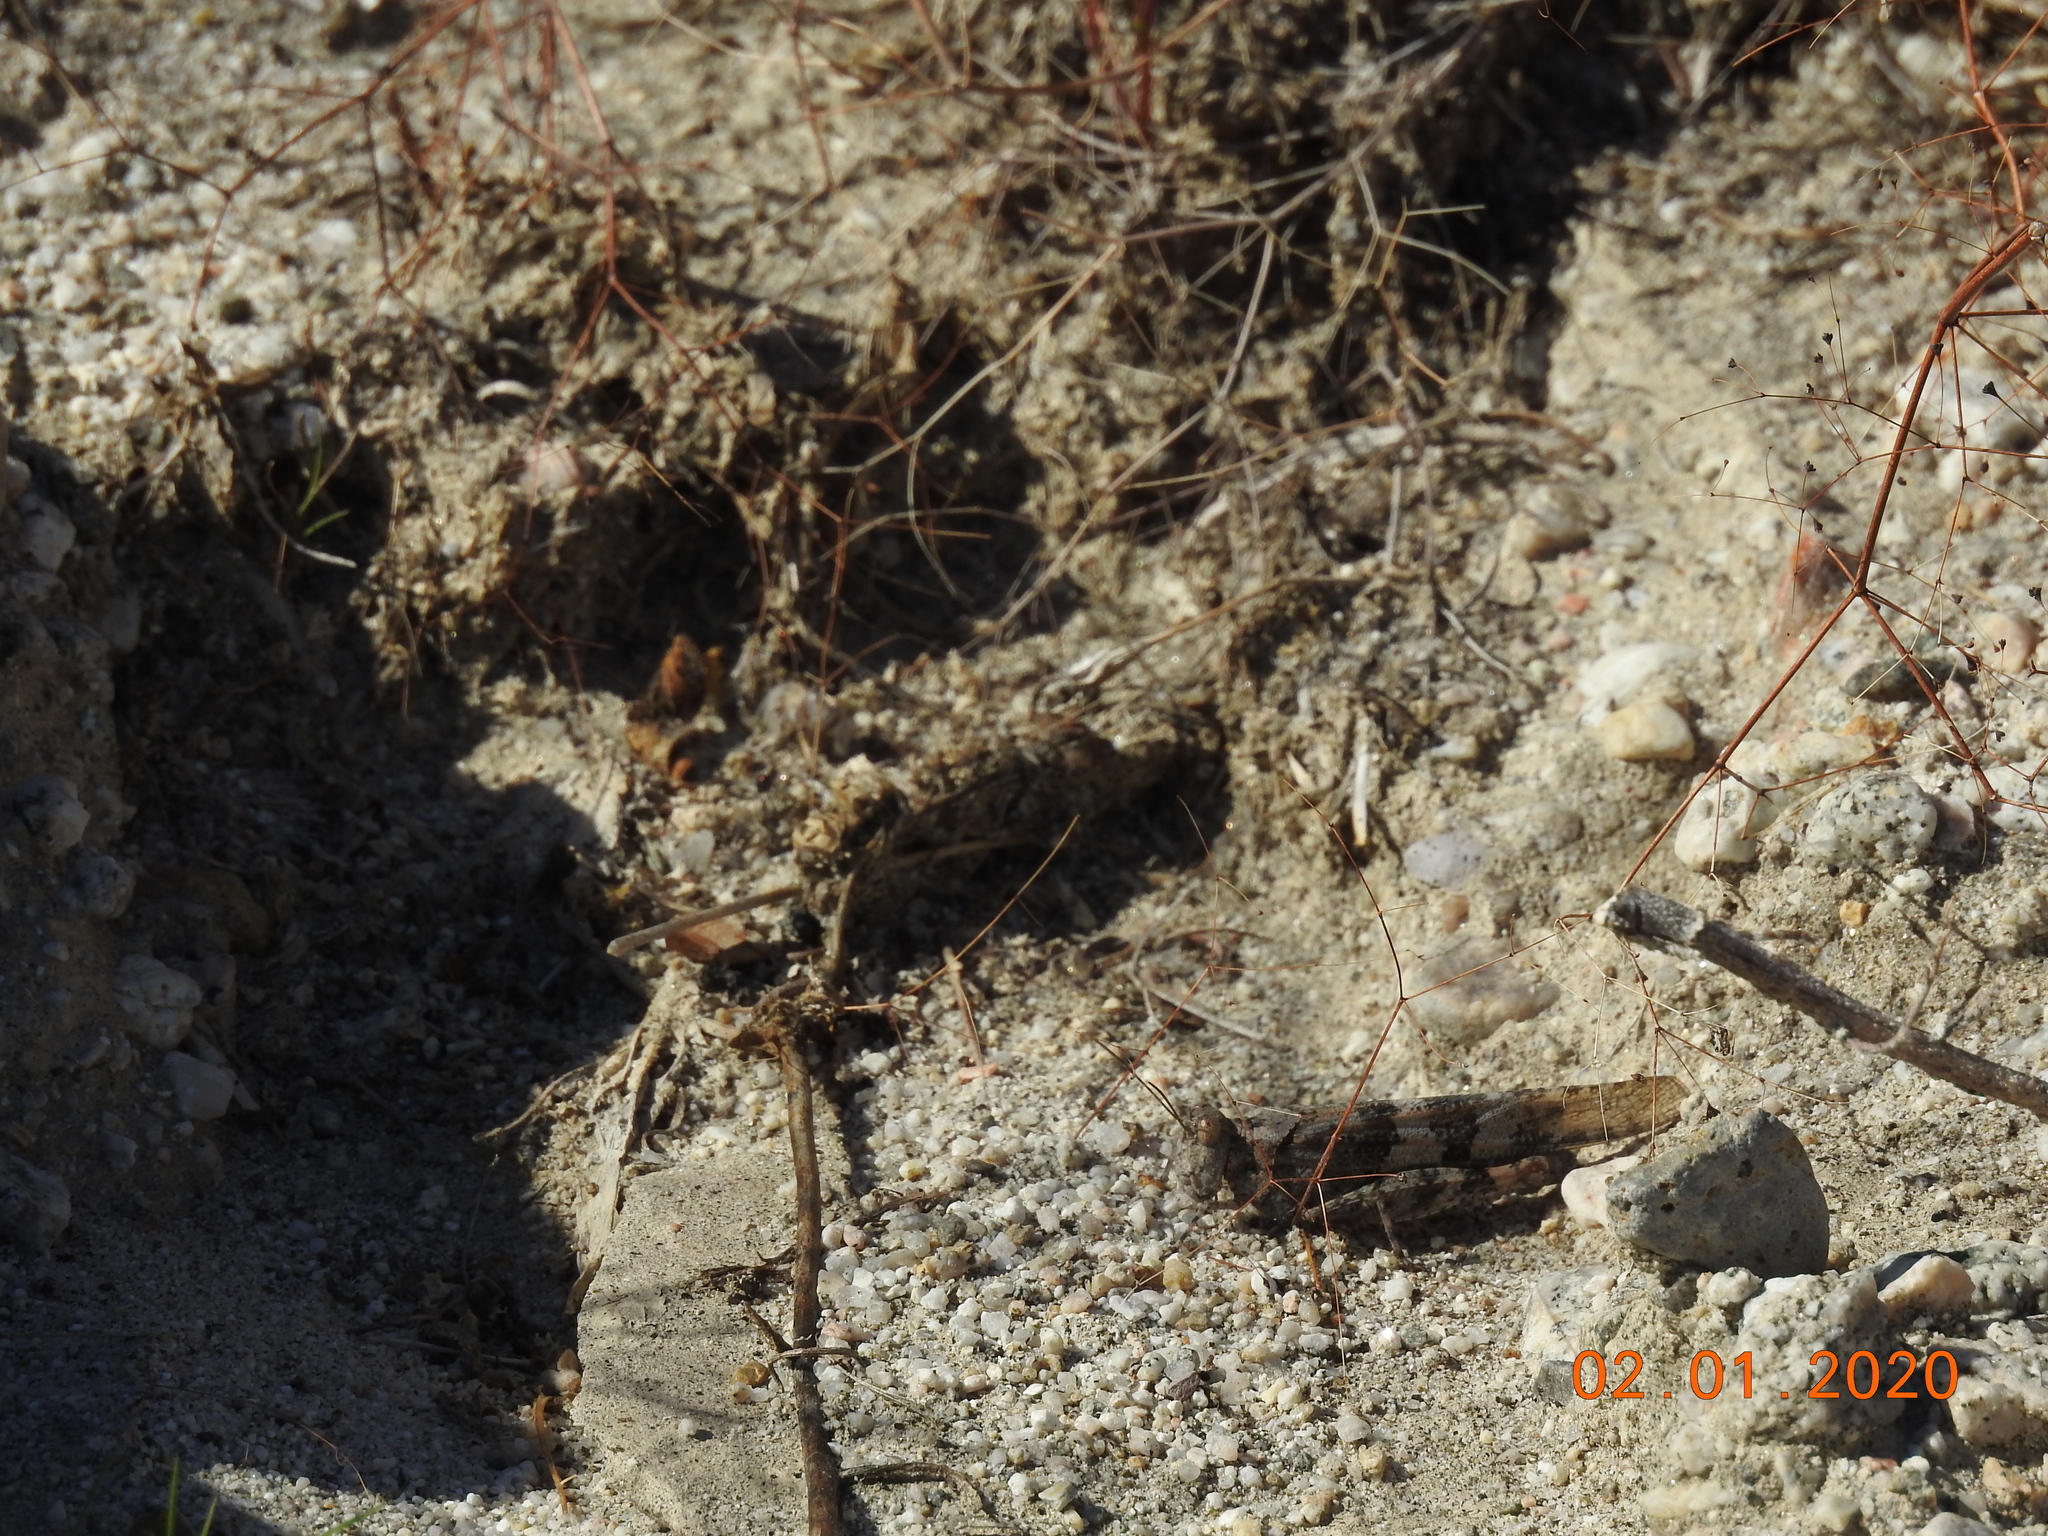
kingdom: Animalia
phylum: Arthropoda
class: Insecta
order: Orthoptera
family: Acrididae
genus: Trimerotropis
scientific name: Trimerotropis pallidipennis
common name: Pallid-winged grasshopper
